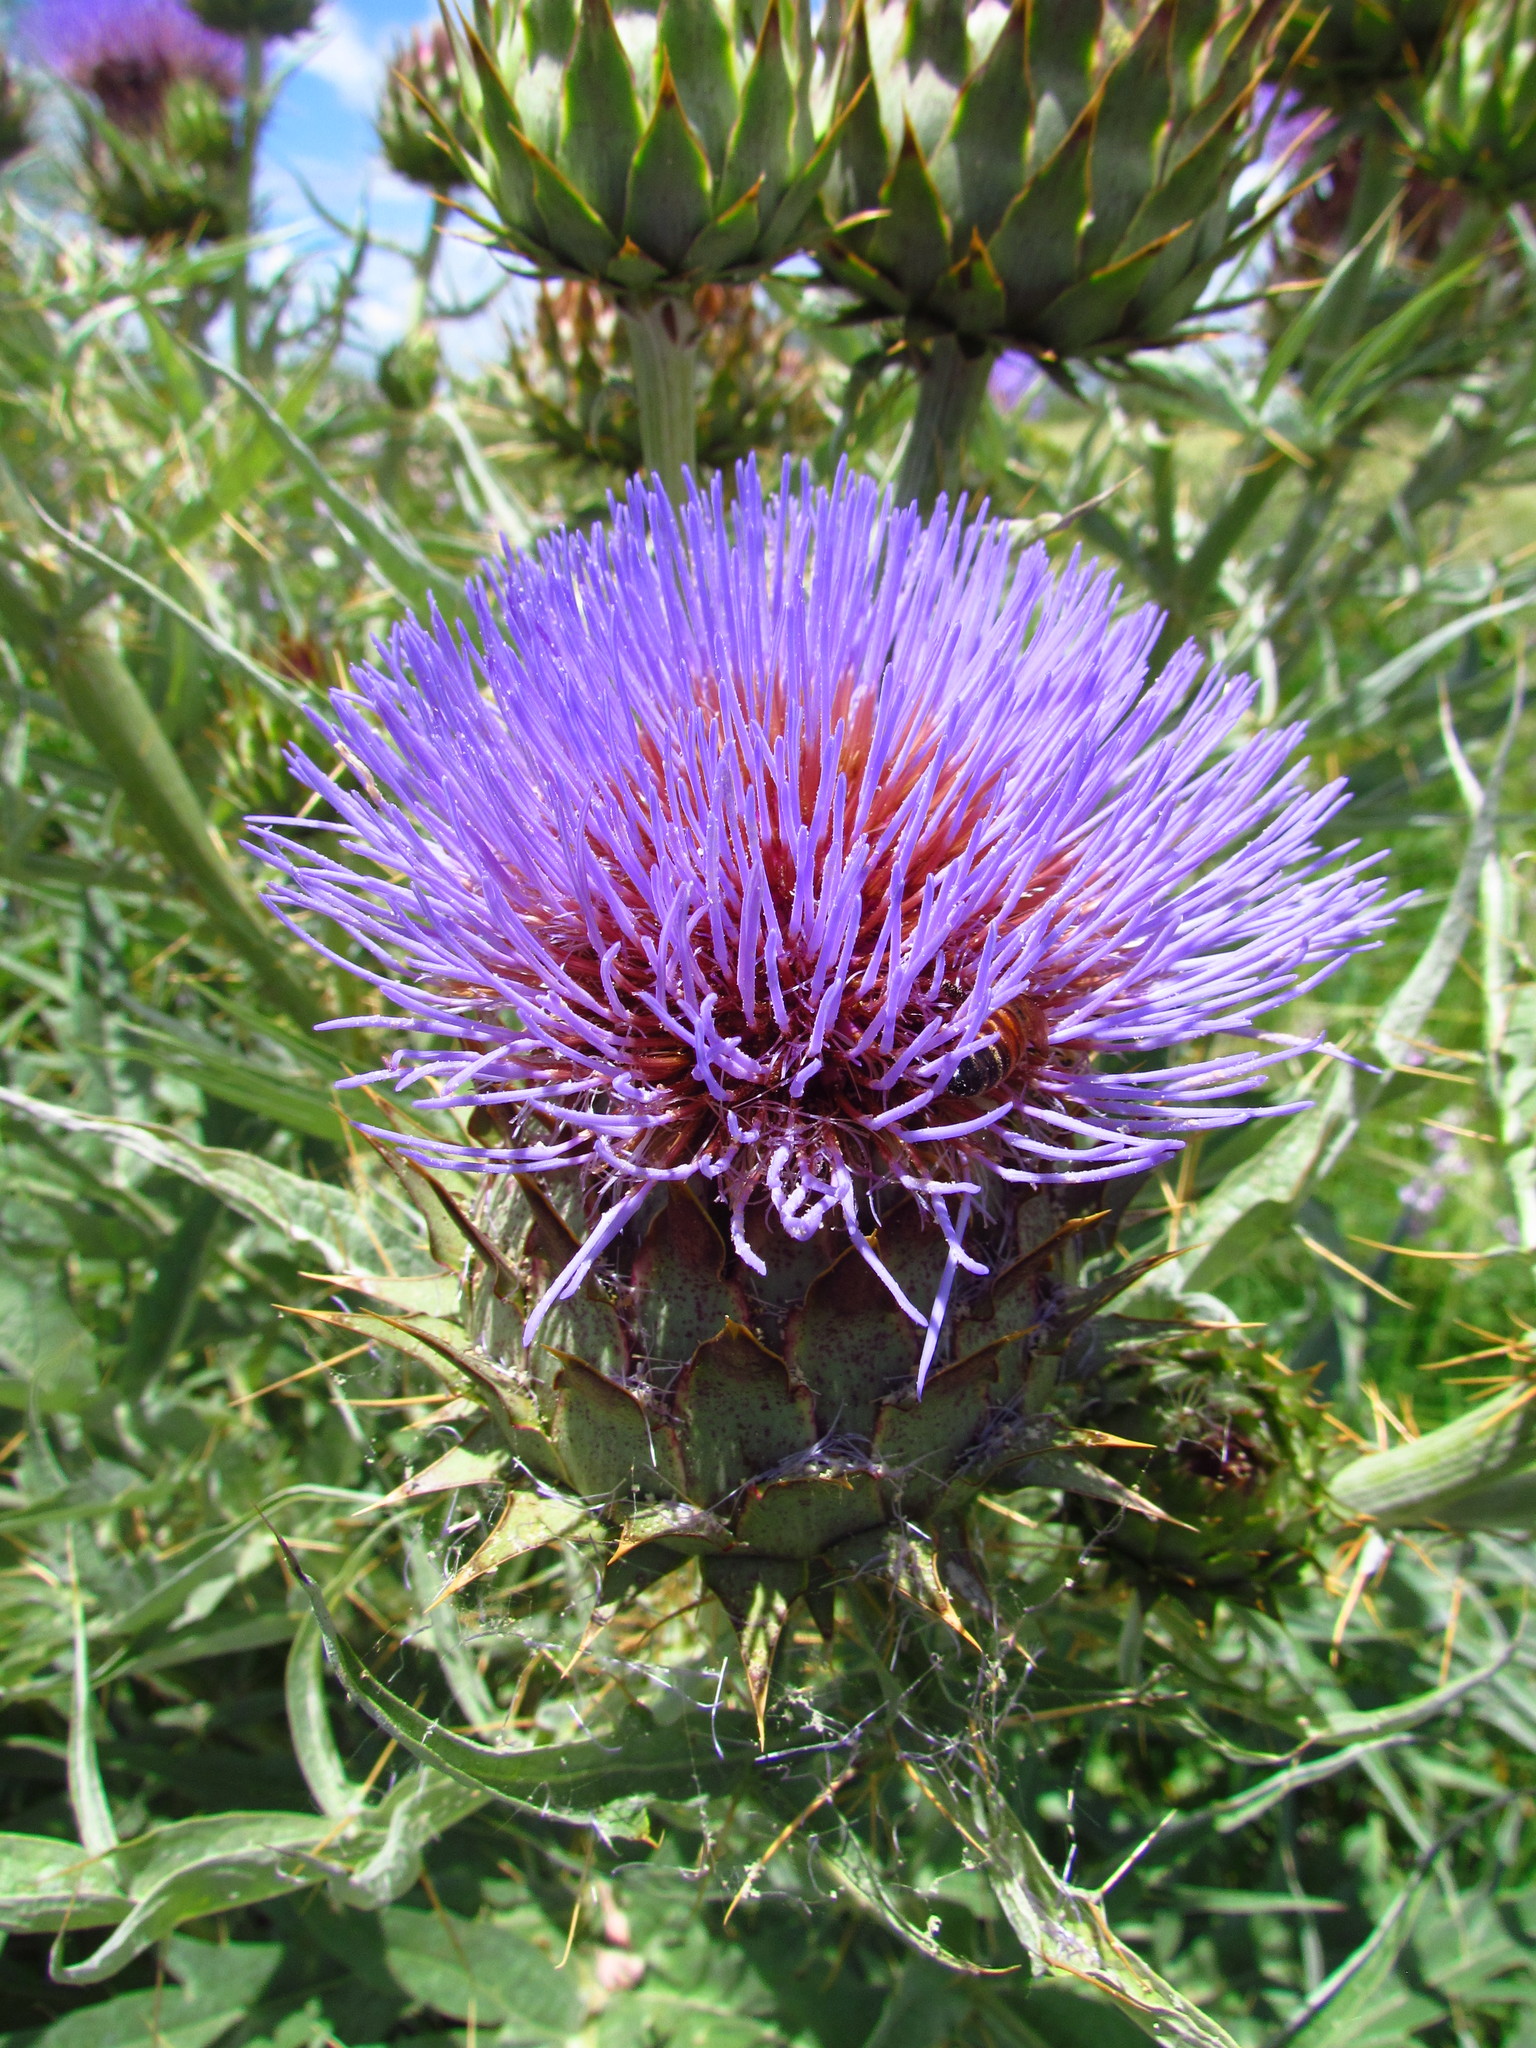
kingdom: Plantae
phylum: Tracheophyta
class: Magnoliopsida
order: Asterales
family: Asteraceae
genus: Cynara
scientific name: Cynara cardunculus
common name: Globe artichoke
